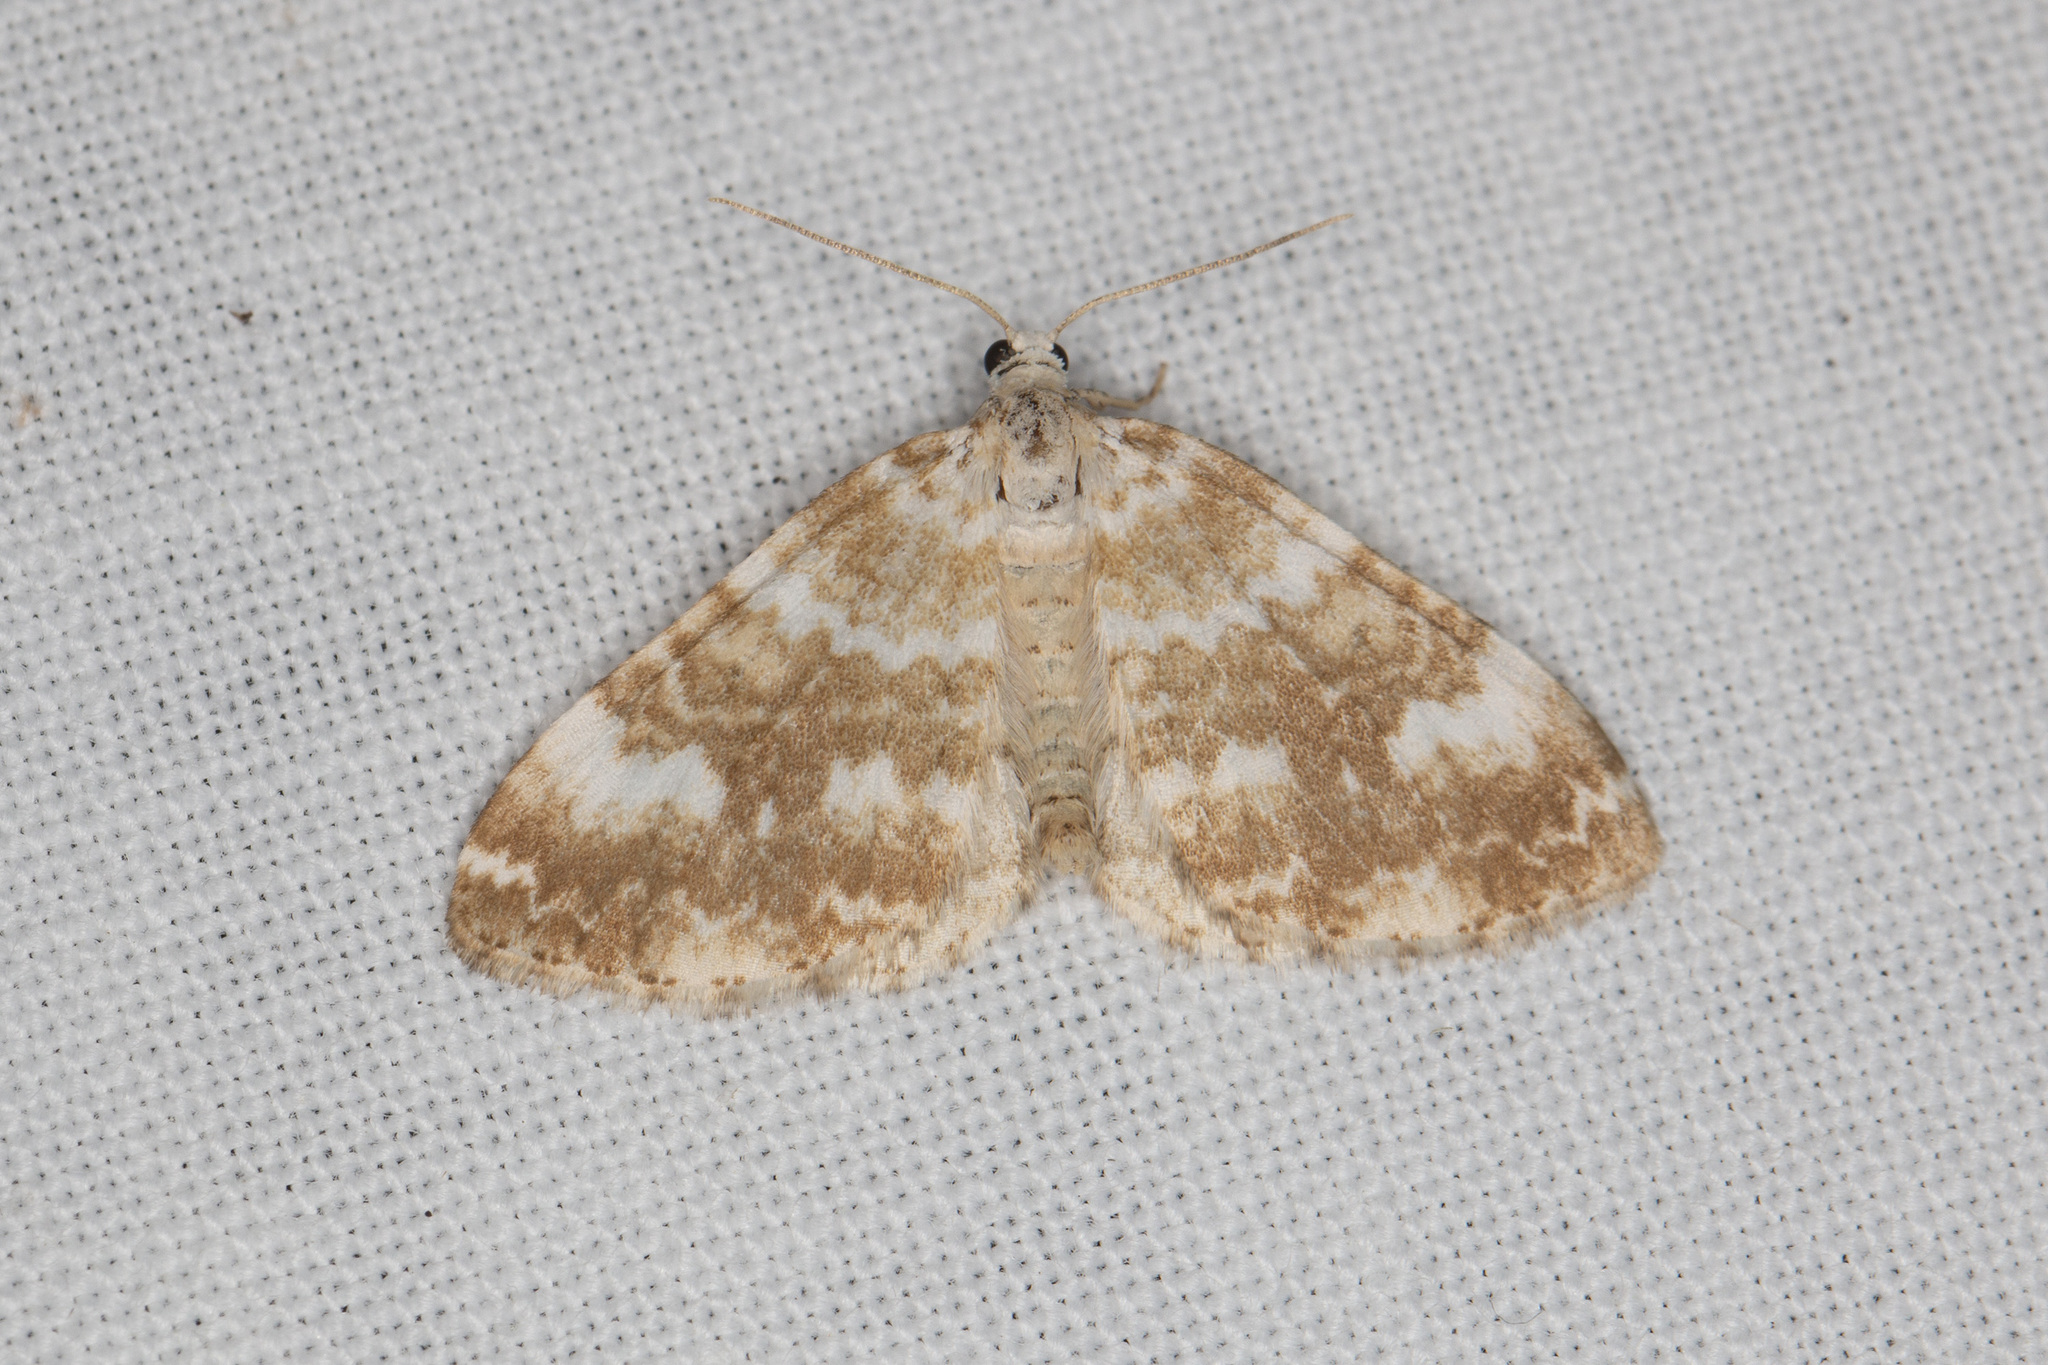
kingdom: Animalia
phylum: Arthropoda
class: Insecta
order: Lepidoptera
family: Geometridae
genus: Perizoma
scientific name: Perizoma flavofasciata
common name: Sandy carpet
